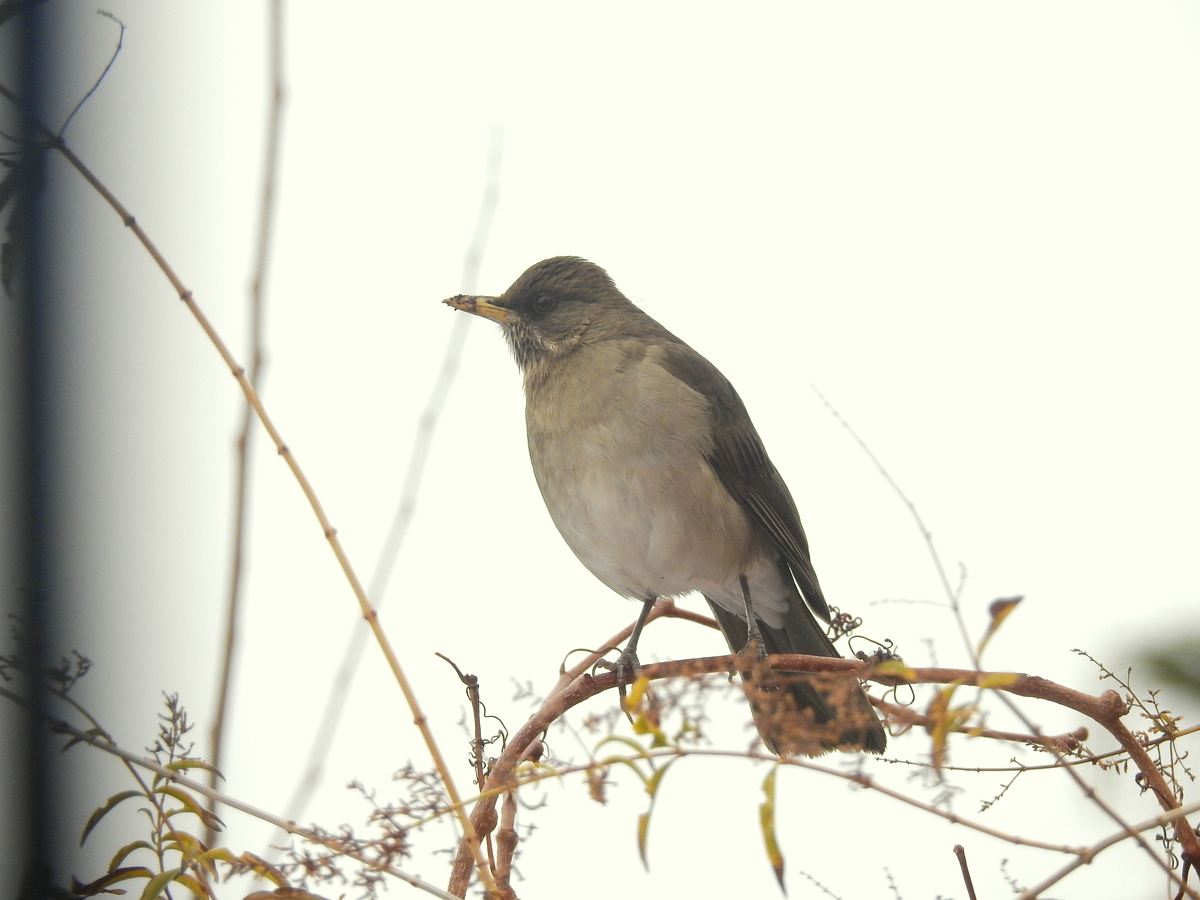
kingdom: Animalia
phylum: Chordata
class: Aves
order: Passeriformes
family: Turdidae
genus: Turdus
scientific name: Turdus amaurochalinus
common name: Creamy-bellied thrush
